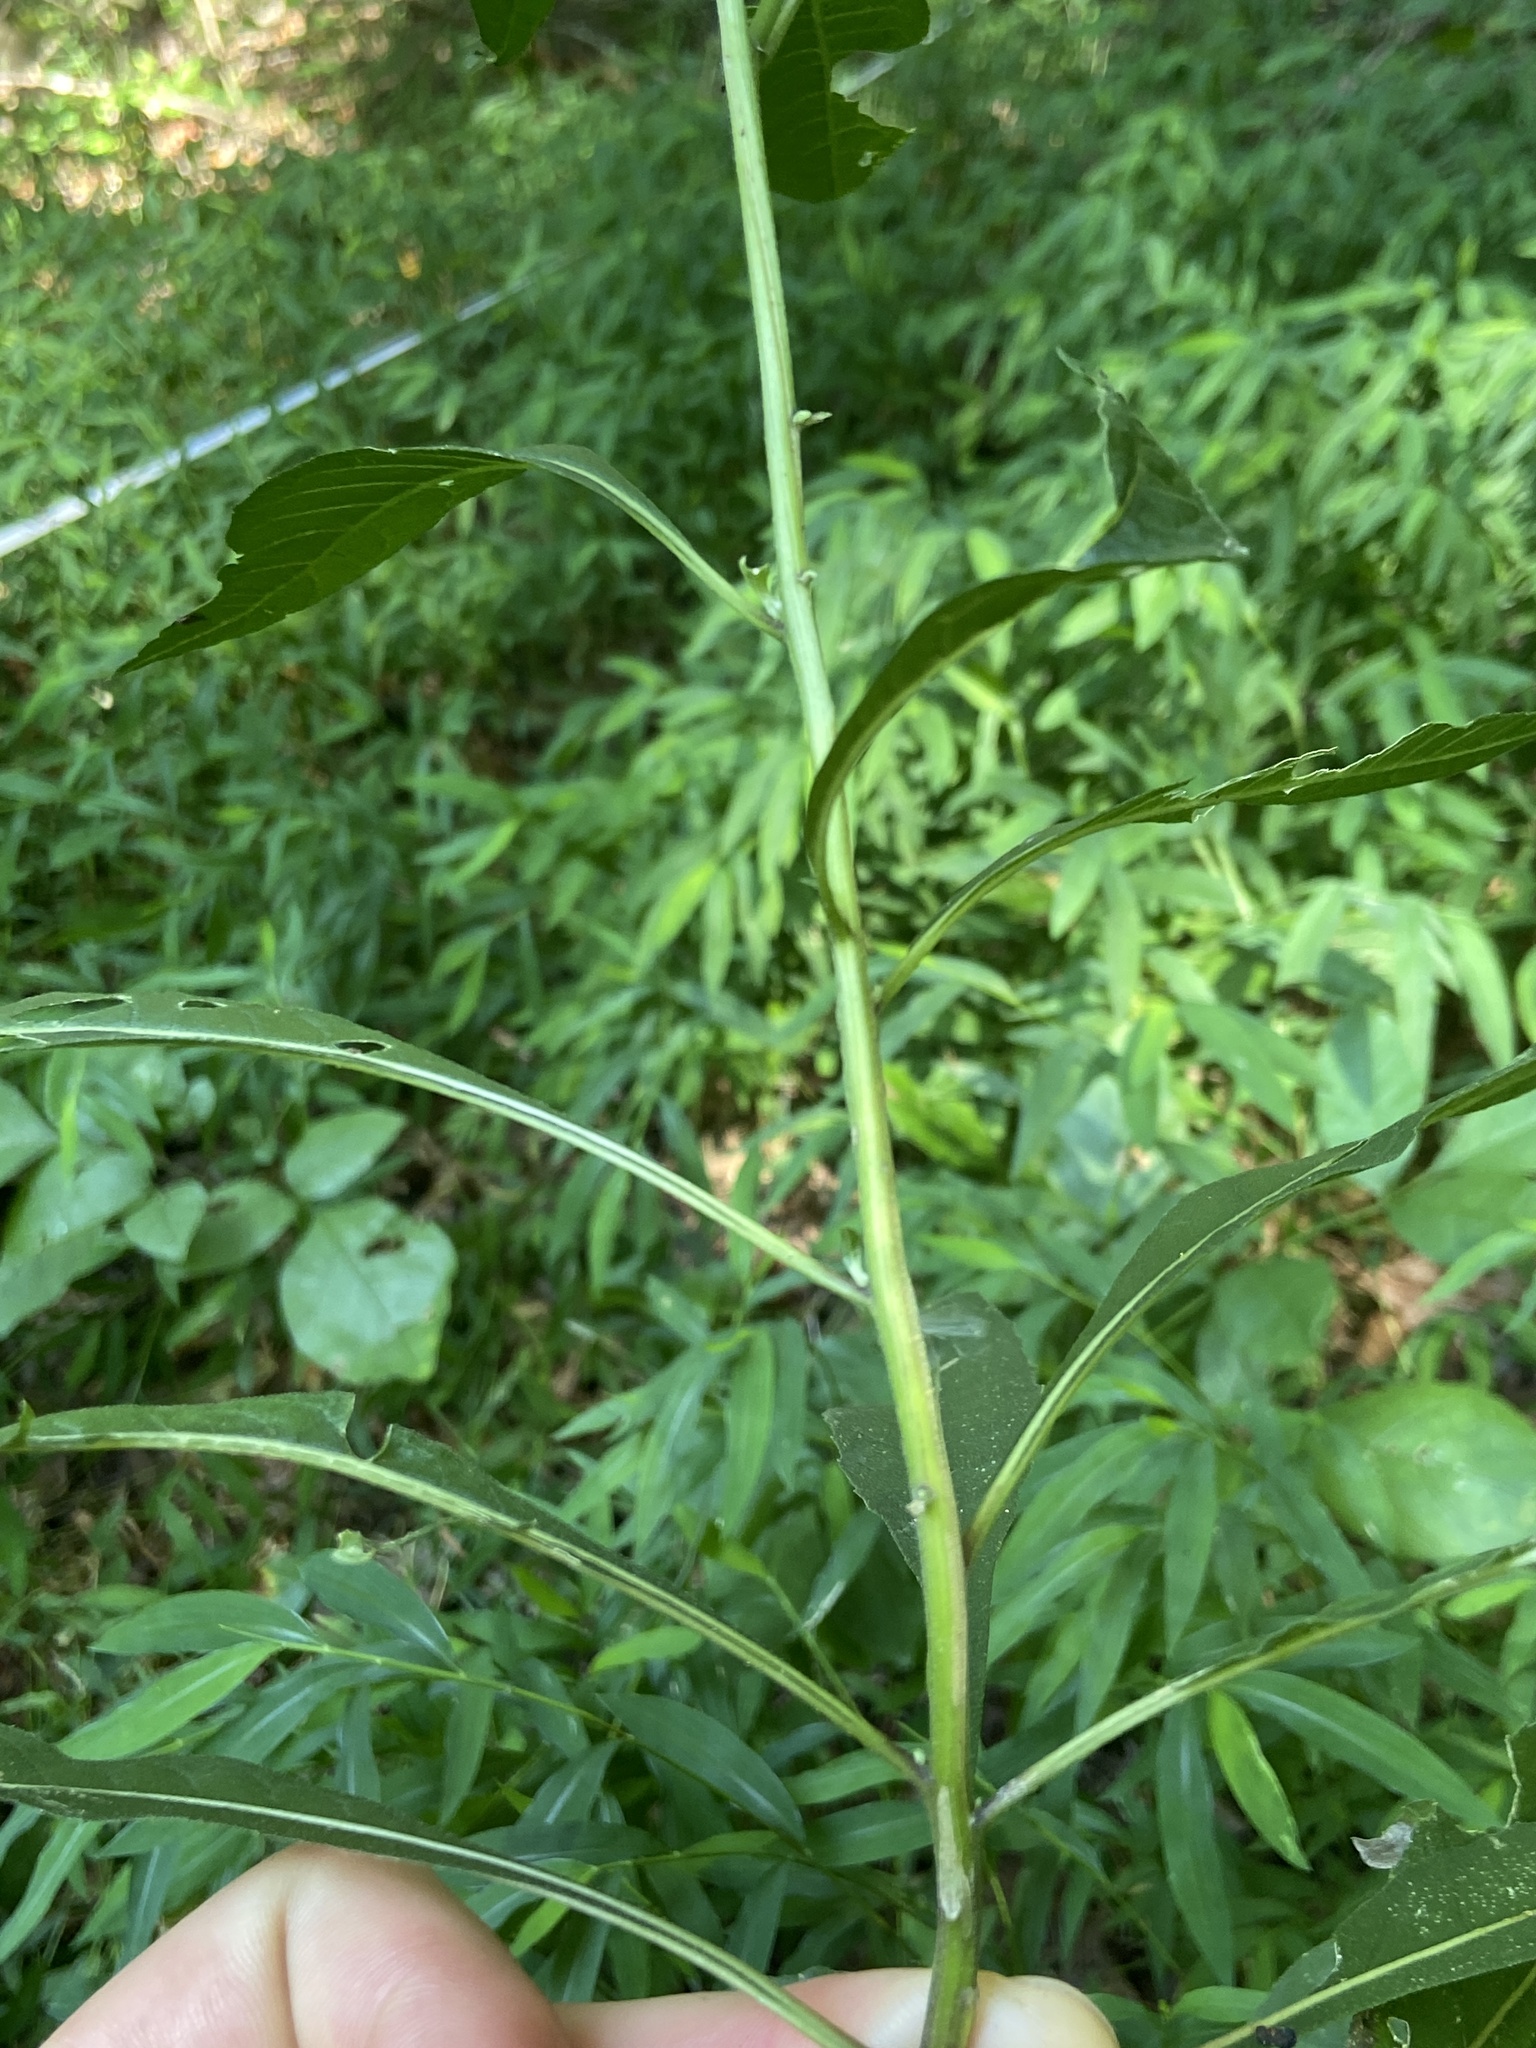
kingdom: Plantae
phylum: Tracheophyta
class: Magnoliopsida
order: Asterales
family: Asteraceae
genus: Verbesina
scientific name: Verbesina alternifolia
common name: Wingstem
